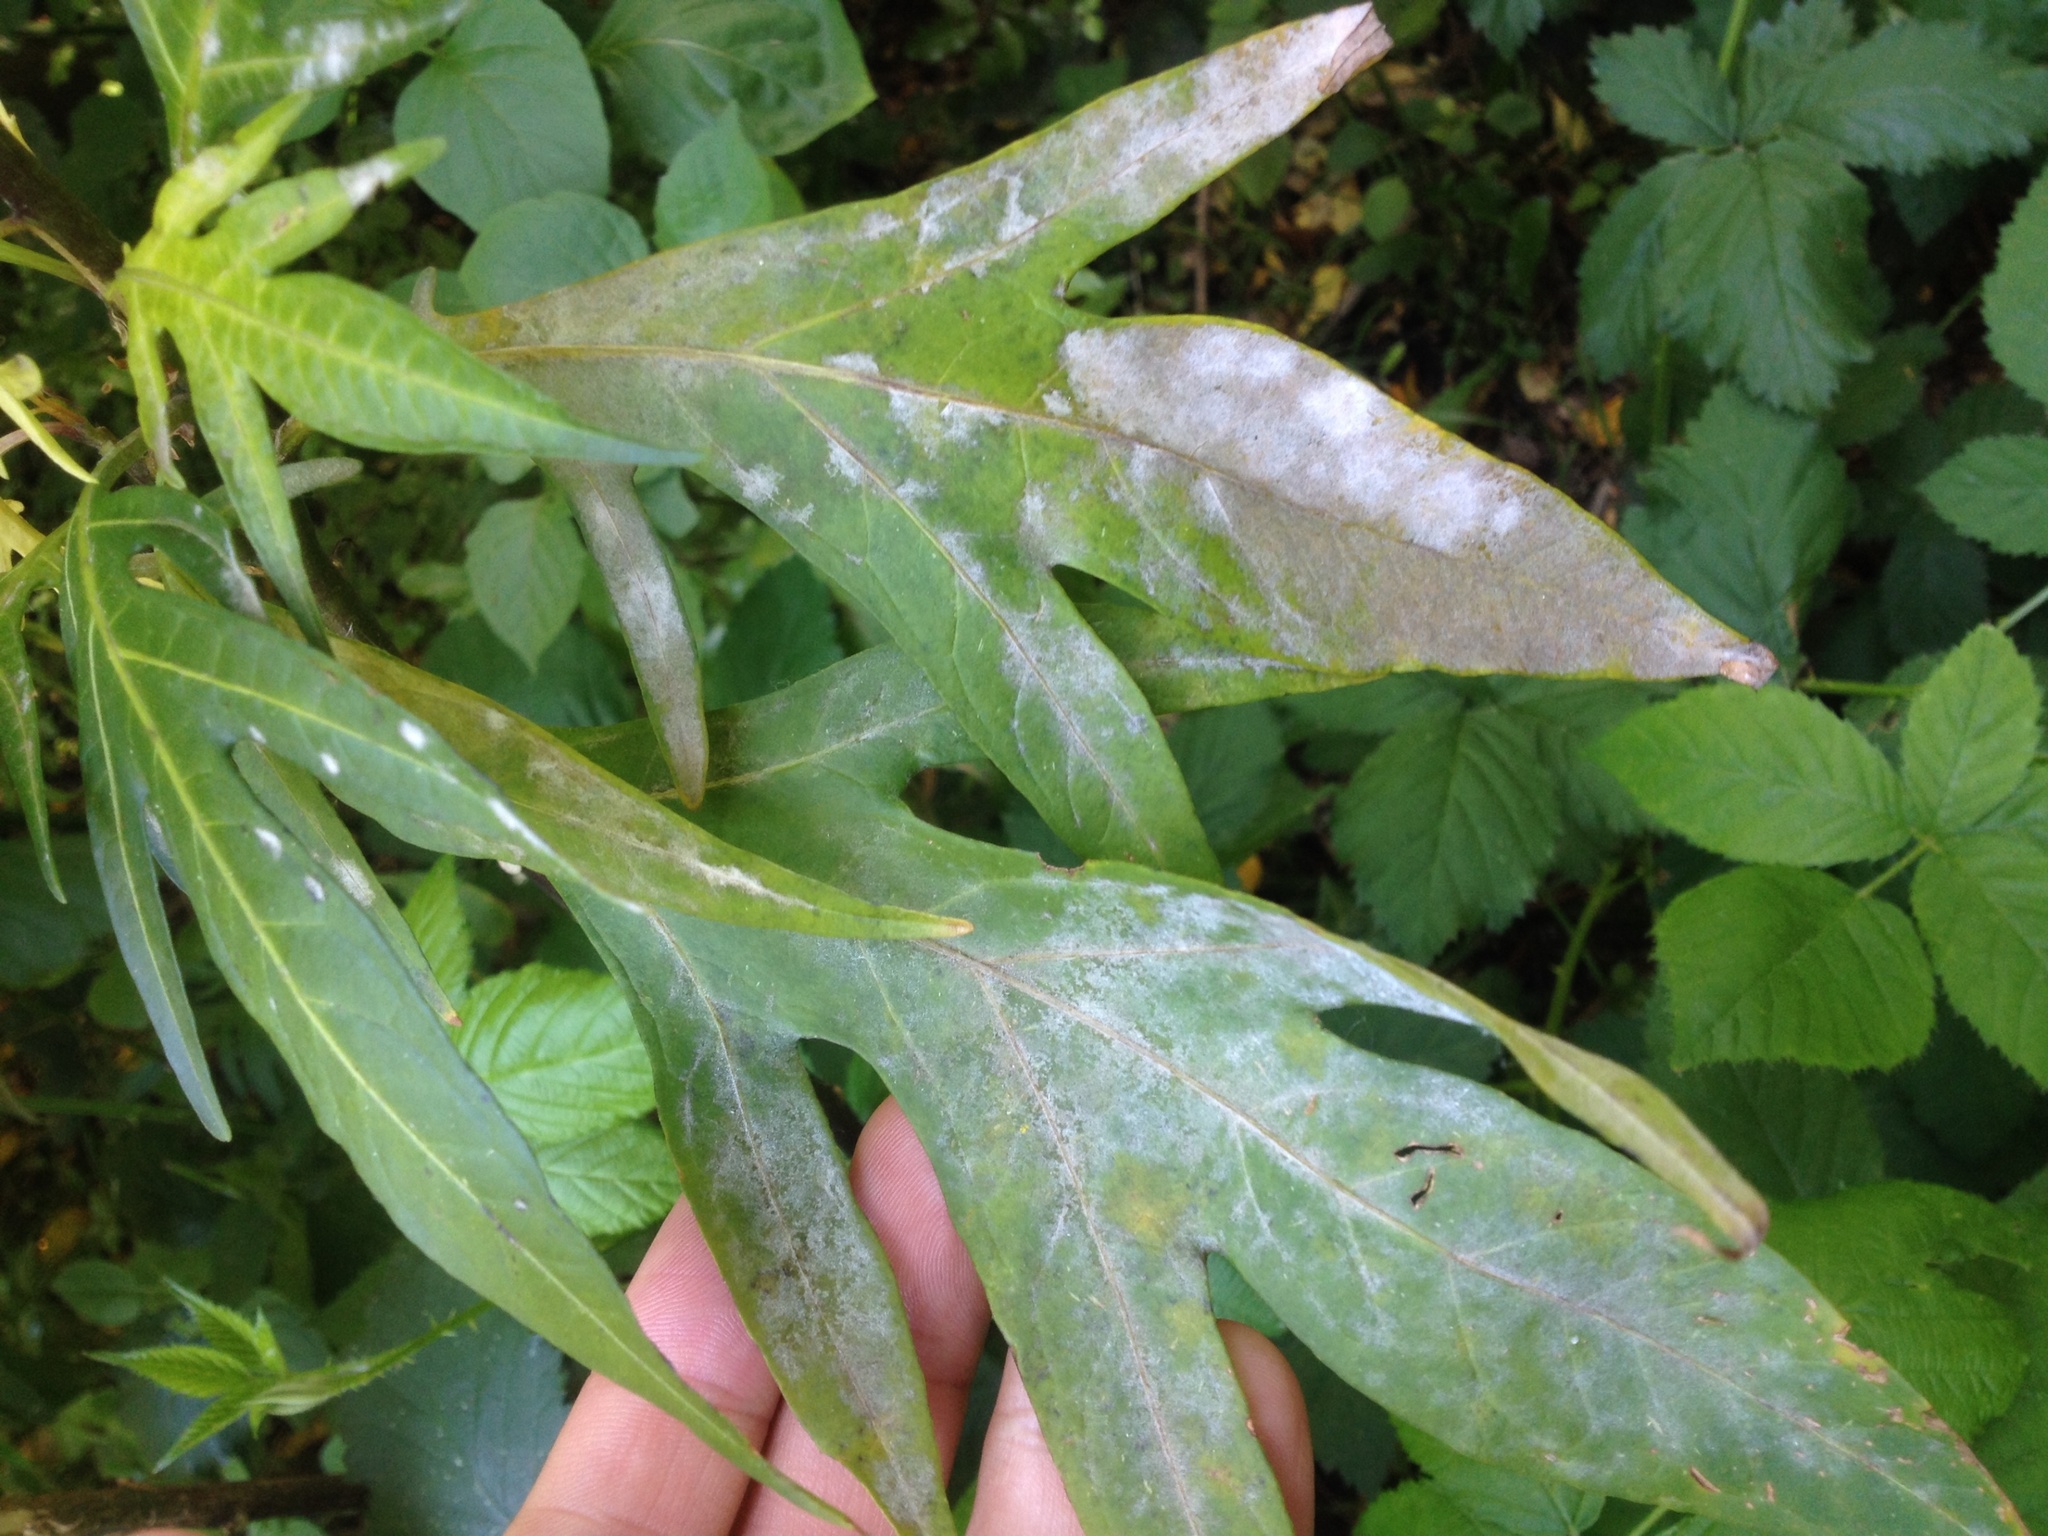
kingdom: Fungi
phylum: Ascomycota
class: Leotiomycetes
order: Helotiales
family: Erysiphaceae
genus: Golovinomyces
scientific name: Golovinomyces longipes
